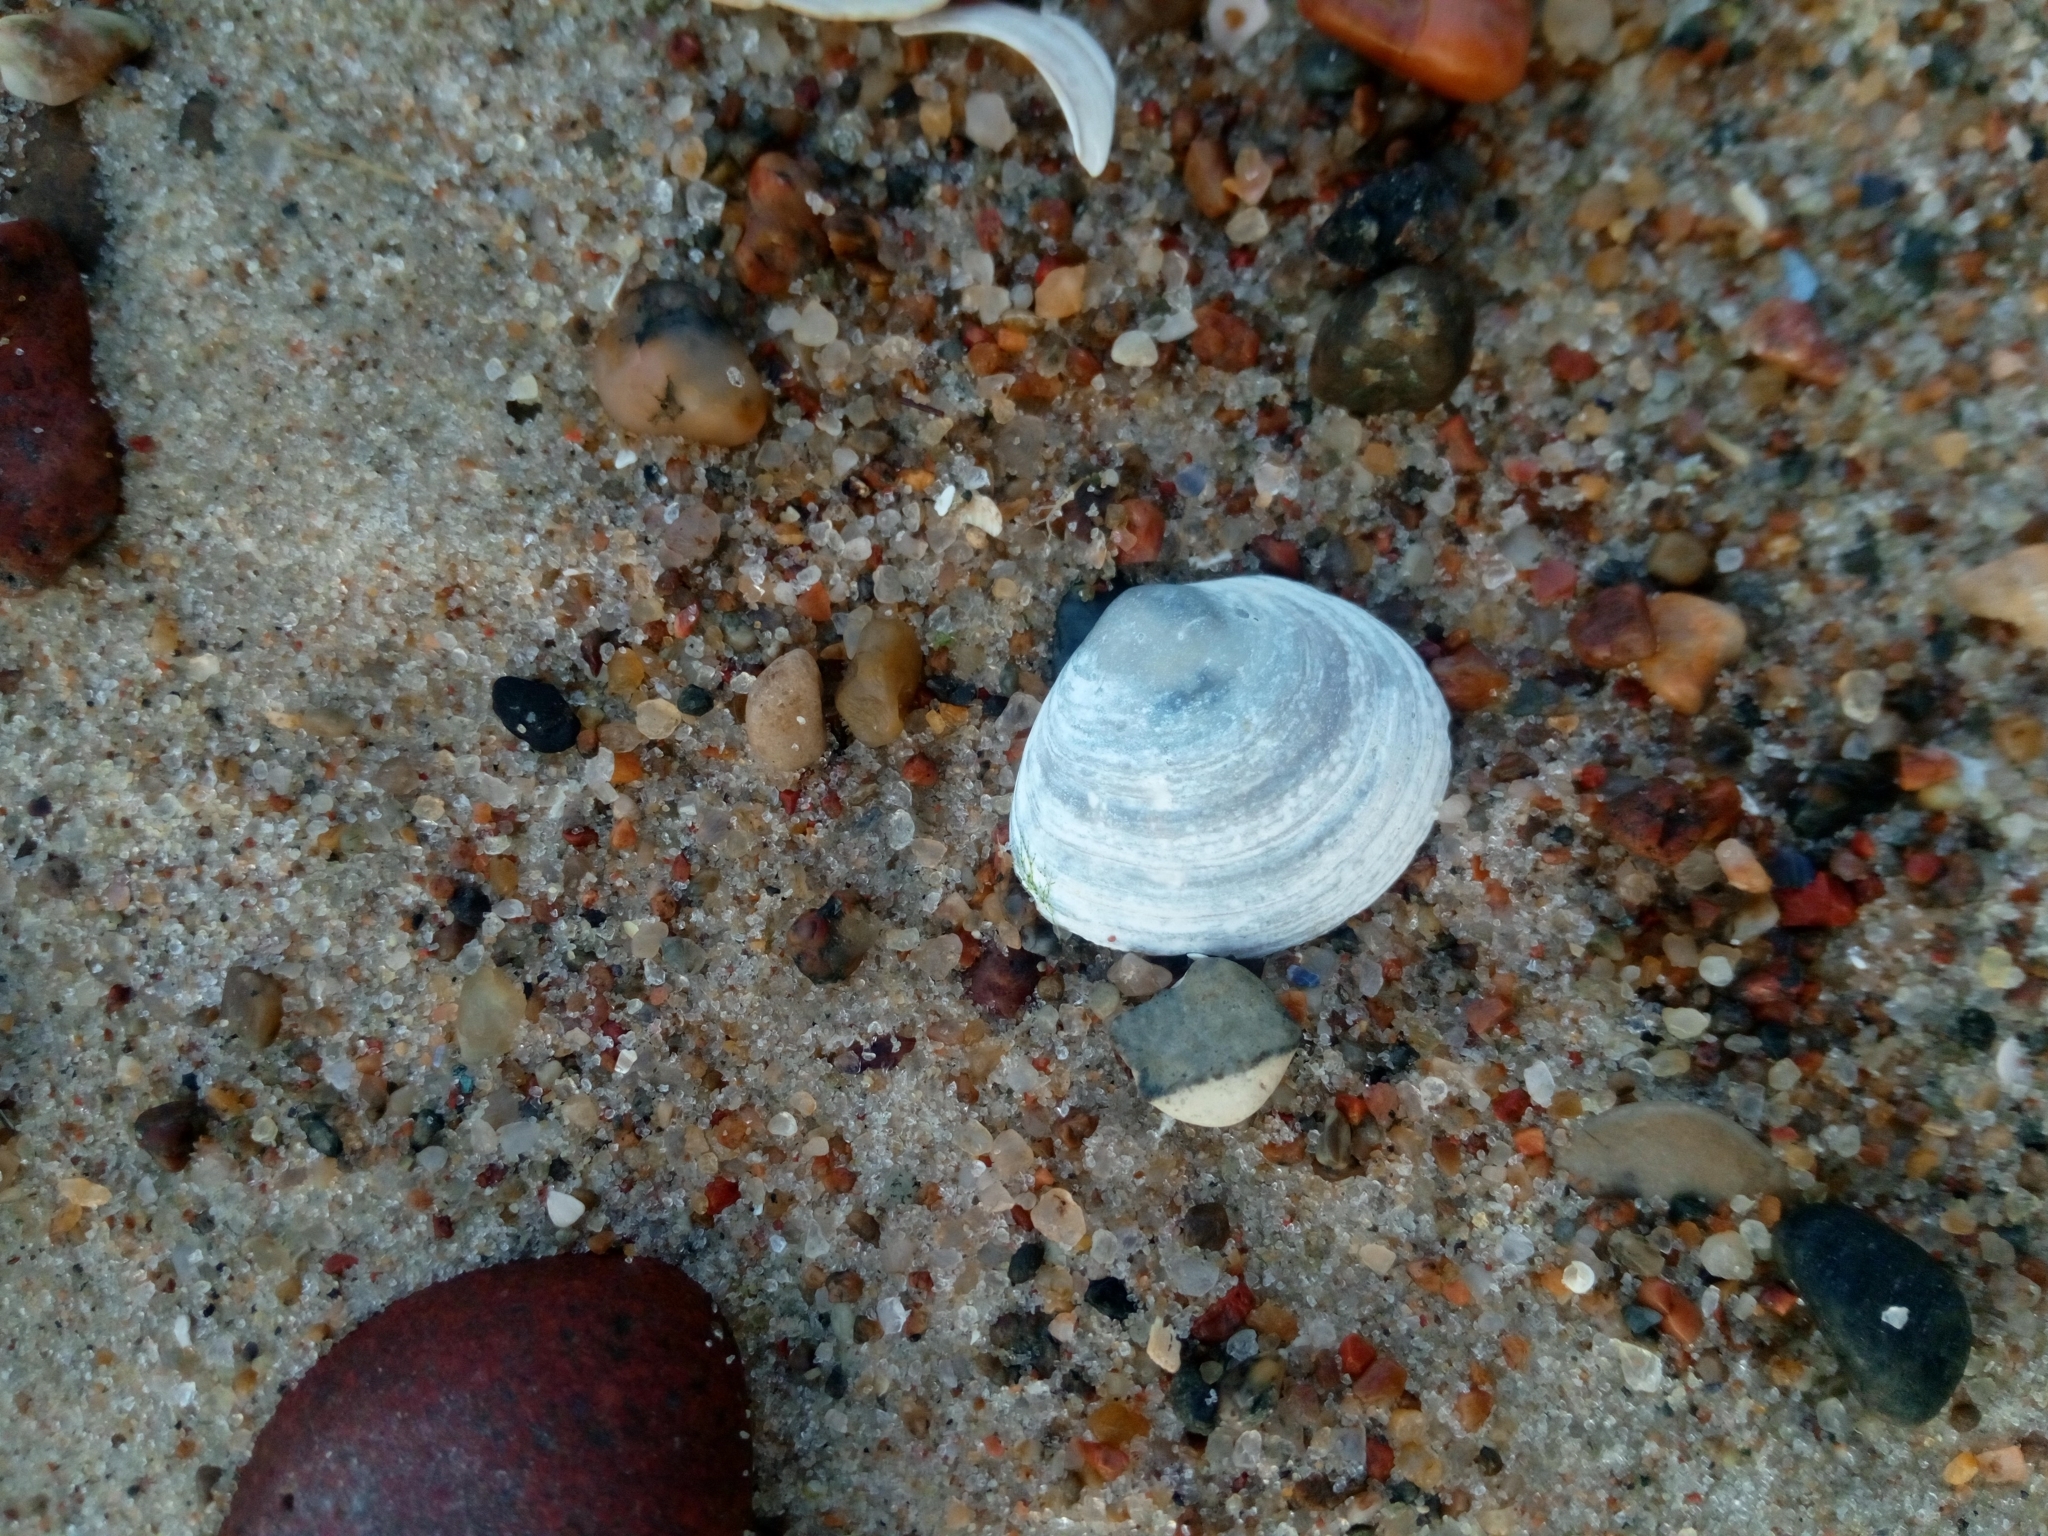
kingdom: Animalia
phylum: Mollusca
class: Bivalvia
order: Cardiida
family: Tellinidae
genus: Macoma
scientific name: Macoma balthica
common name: Baltic tellin
